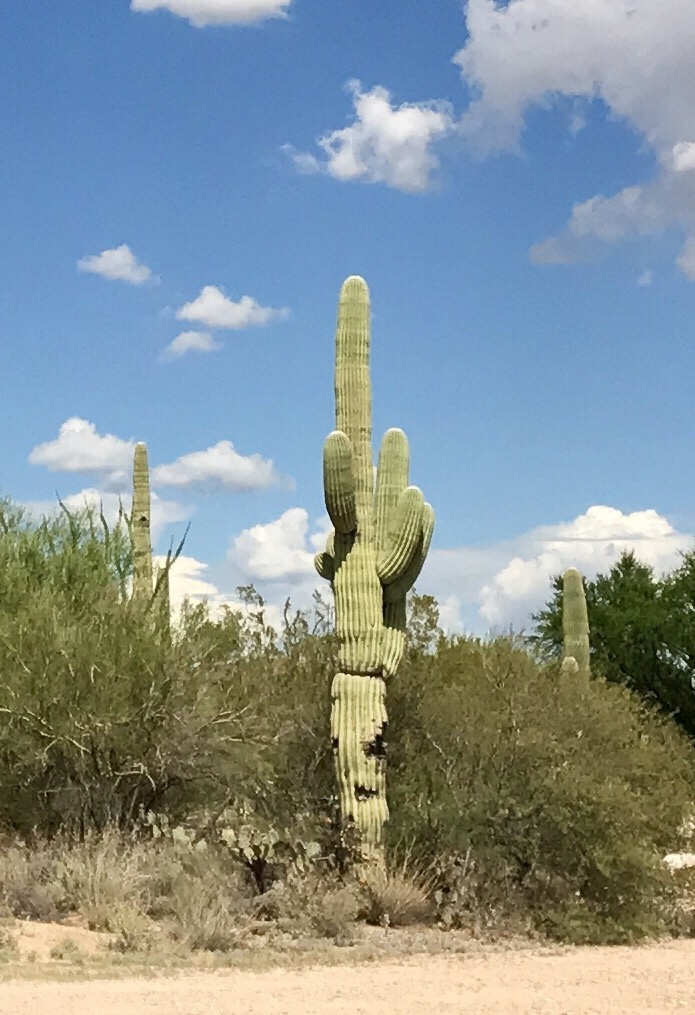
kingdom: Plantae
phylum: Tracheophyta
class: Magnoliopsida
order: Caryophyllales
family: Cactaceae
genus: Carnegiea
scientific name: Carnegiea gigantea
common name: Saguaro
